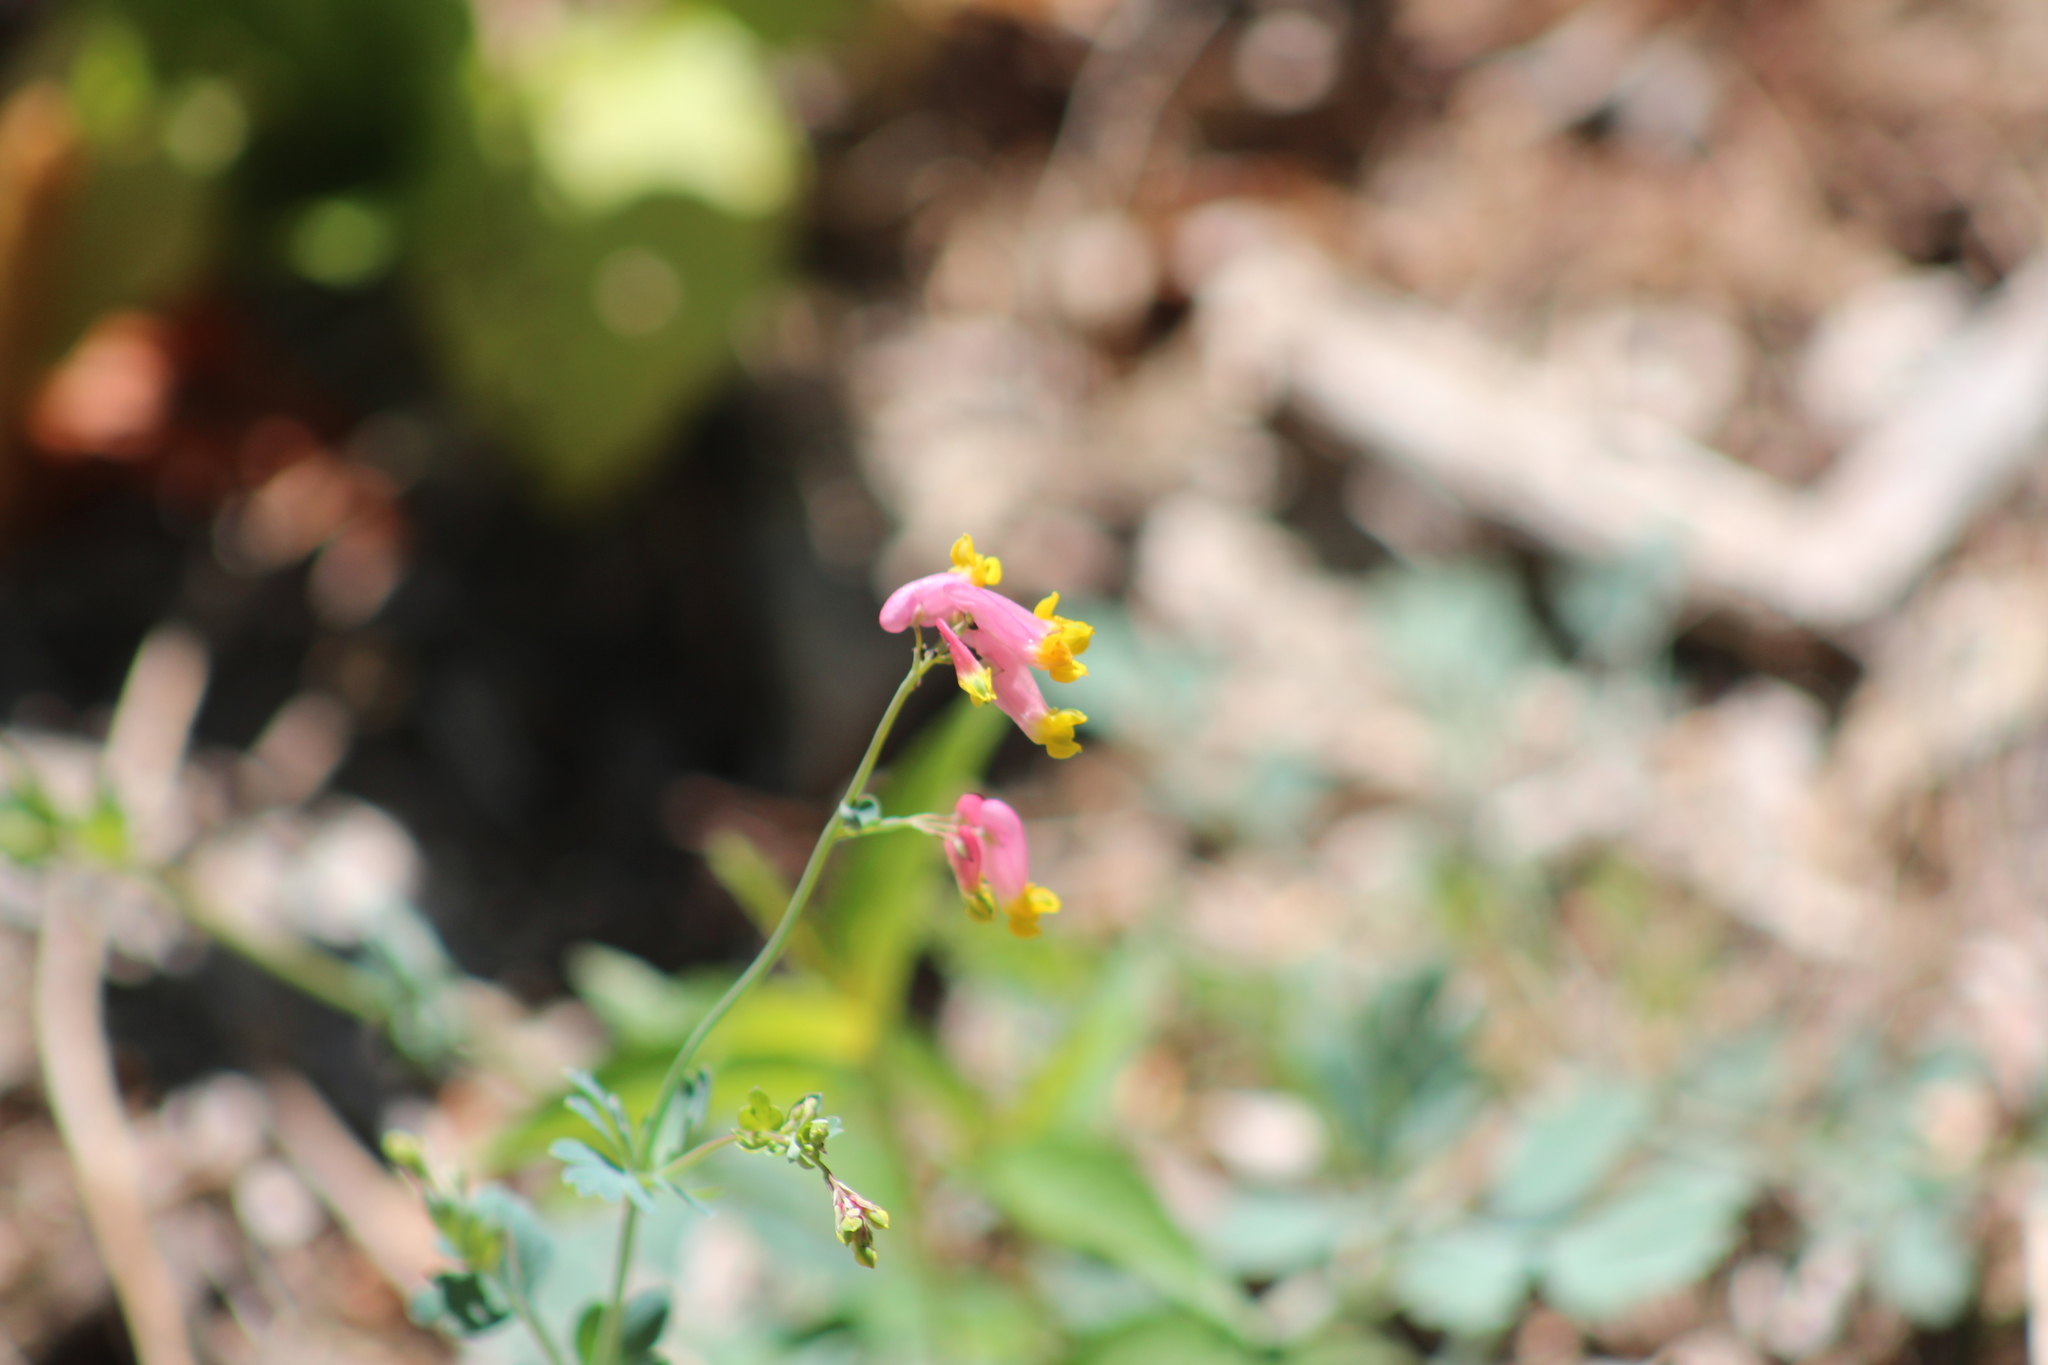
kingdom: Plantae
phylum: Tracheophyta
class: Magnoliopsida
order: Ranunculales
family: Papaveraceae
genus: Capnoides
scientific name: Capnoides sempervirens
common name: Rock harlequin
